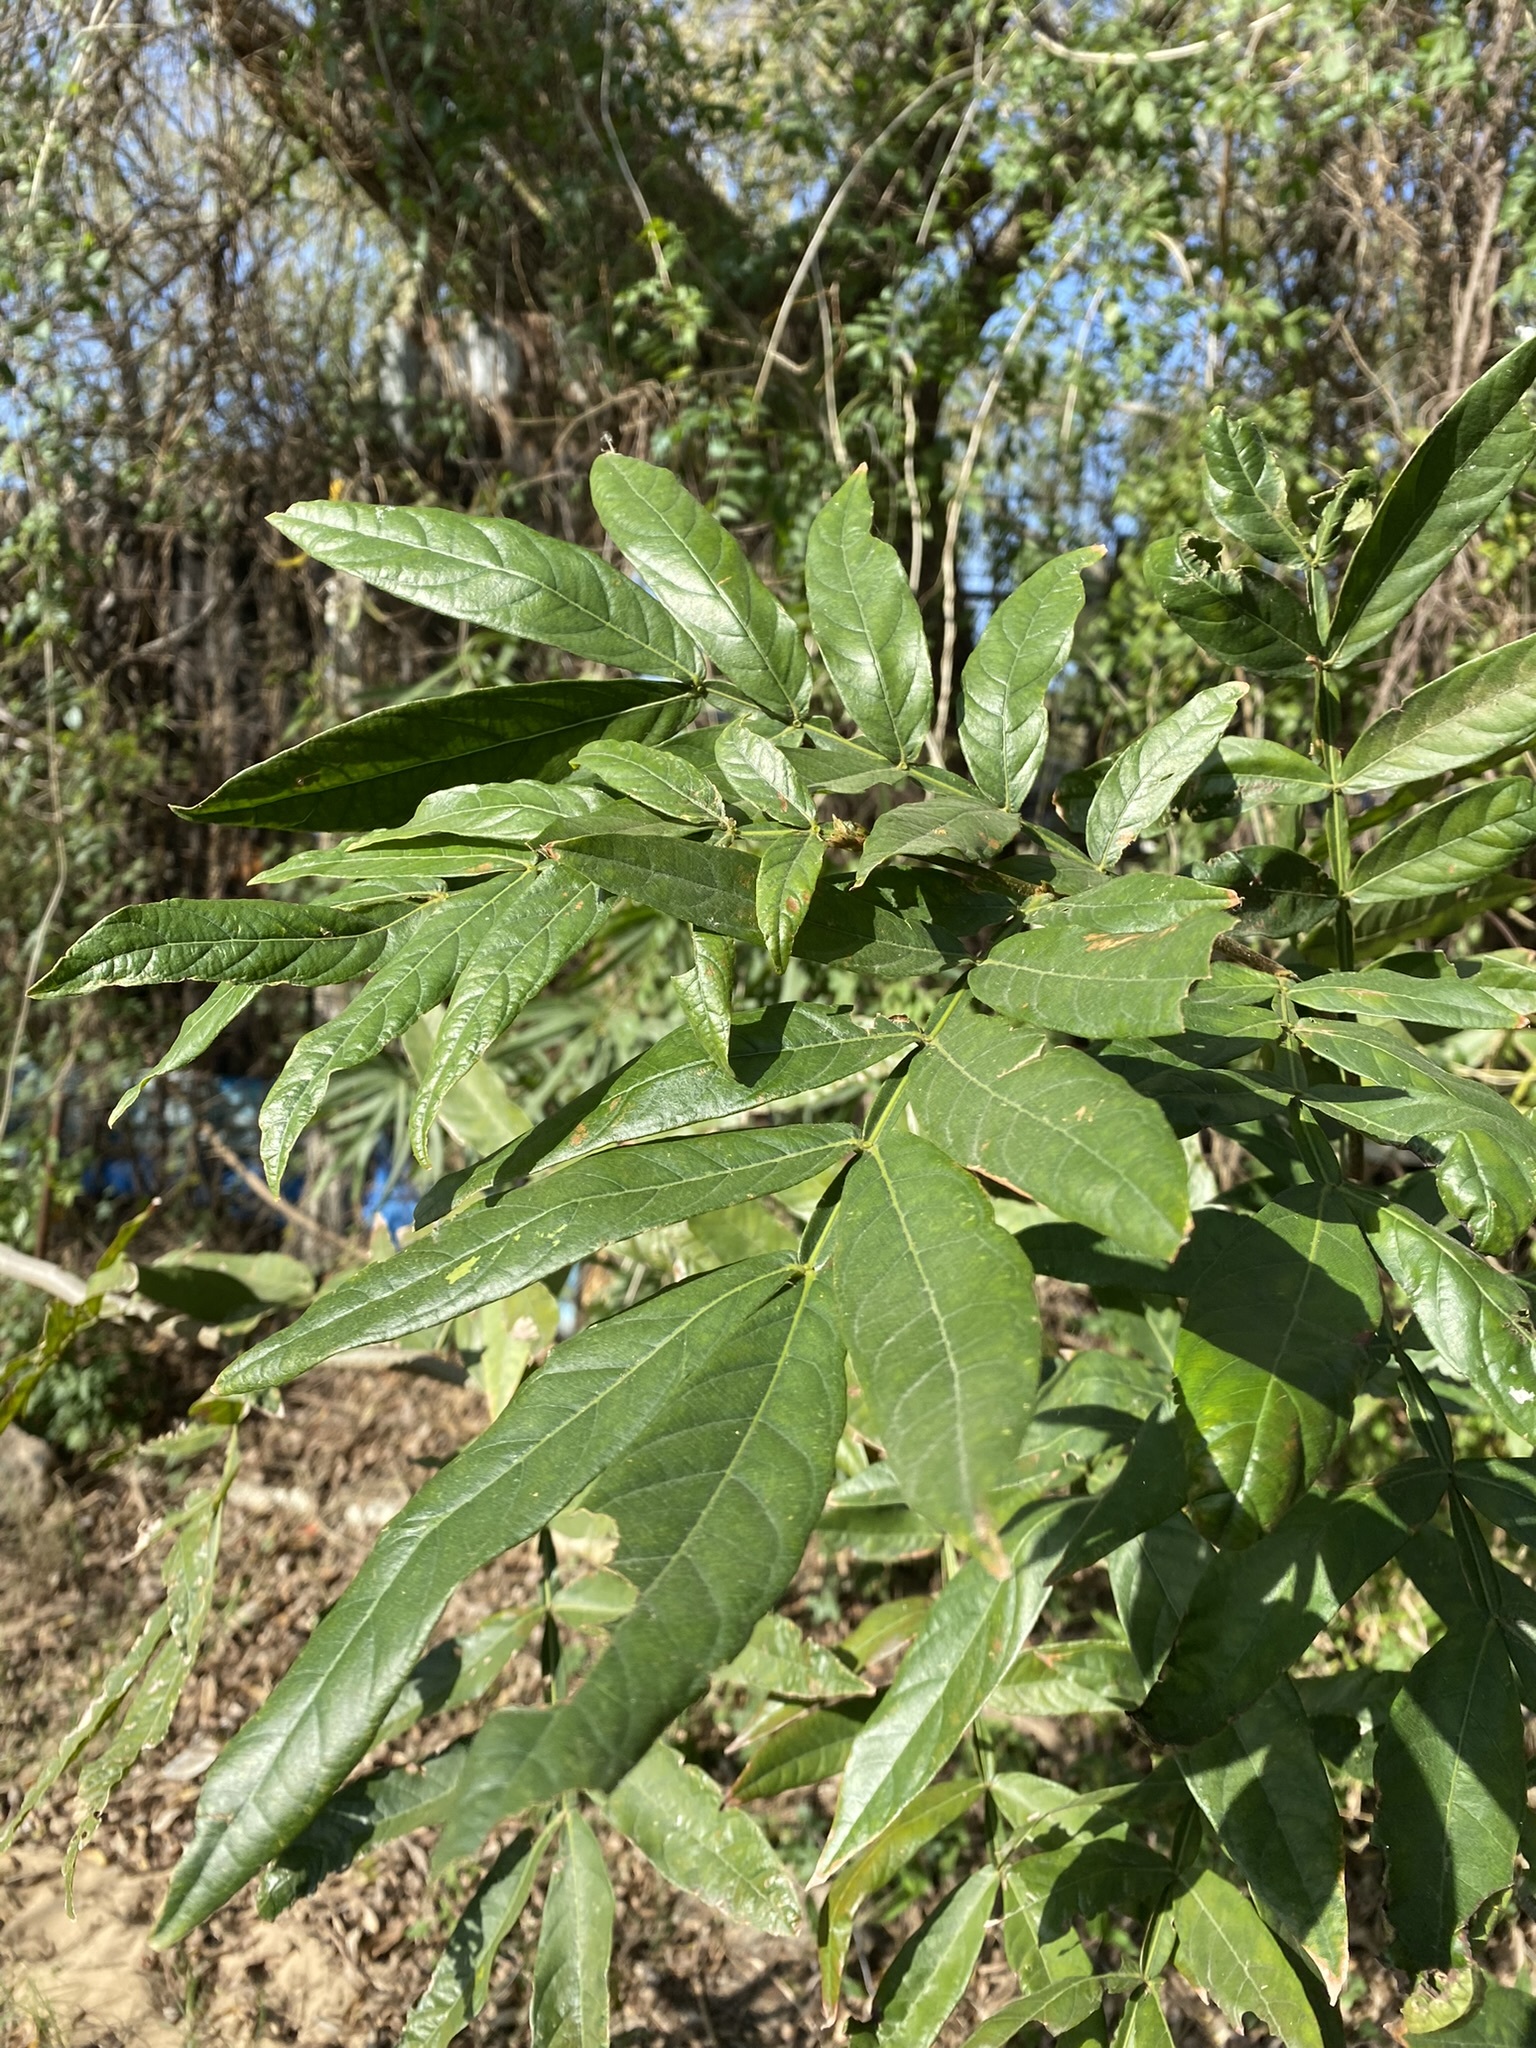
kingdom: Plantae
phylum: Tracheophyta
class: Magnoliopsida
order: Fabales
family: Fabaceae
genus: Inga
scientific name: Inga uraguensis
